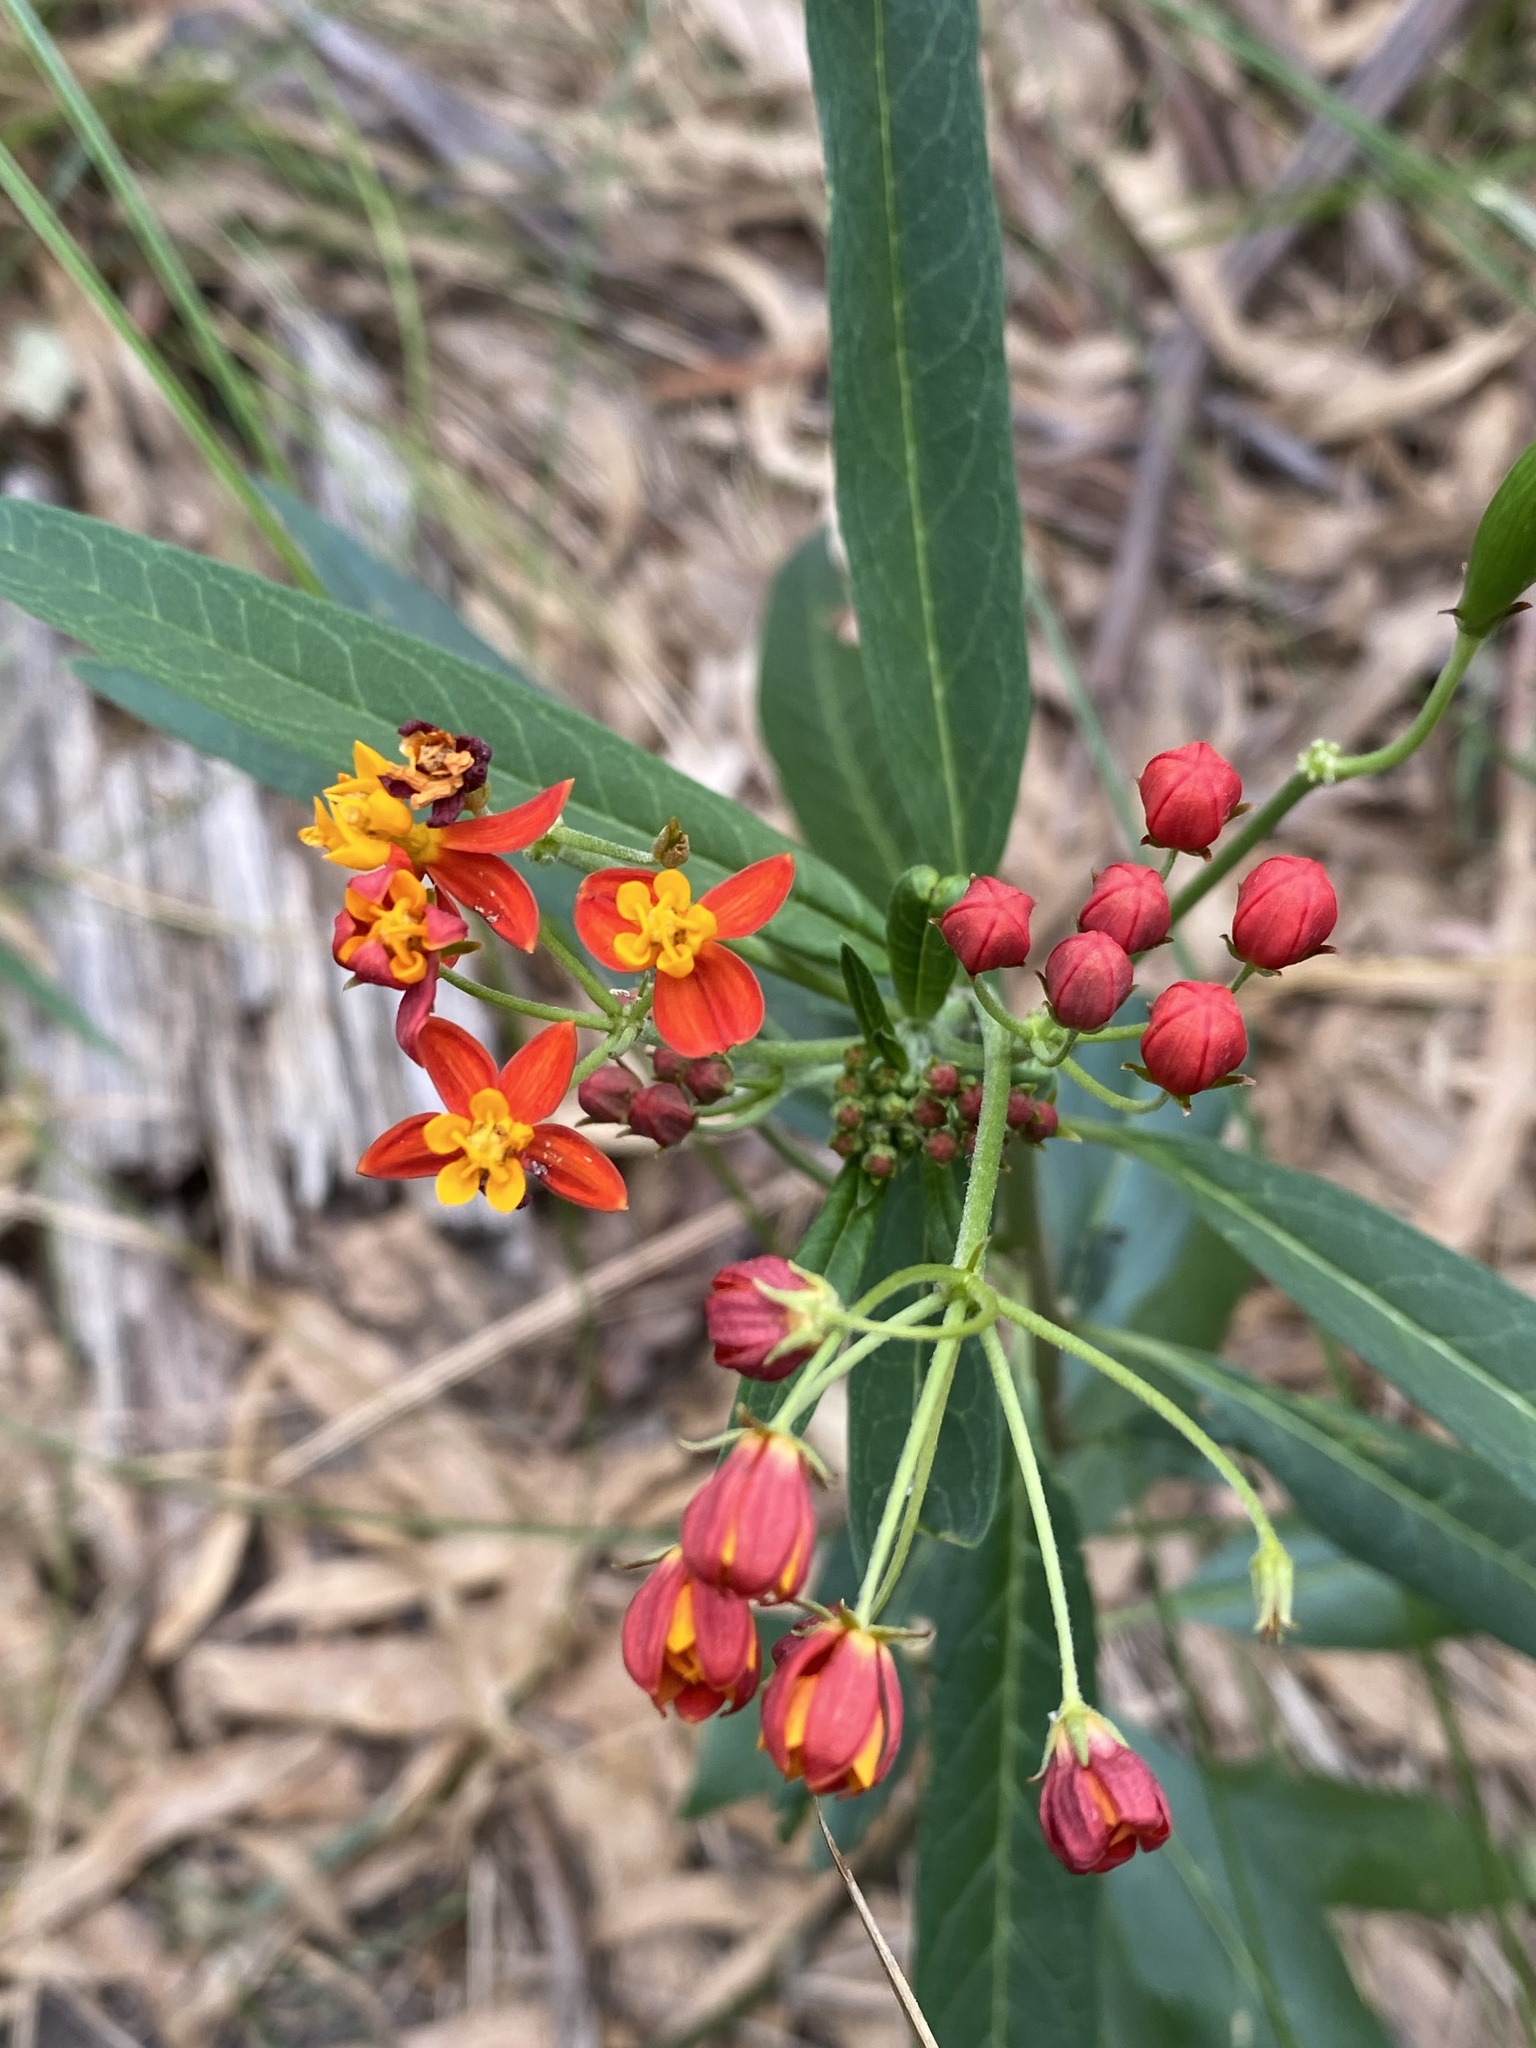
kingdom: Plantae
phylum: Tracheophyta
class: Magnoliopsida
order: Gentianales
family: Apocynaceae
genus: Asclepias
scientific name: Asclepias curassavica
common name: Bloodflower
